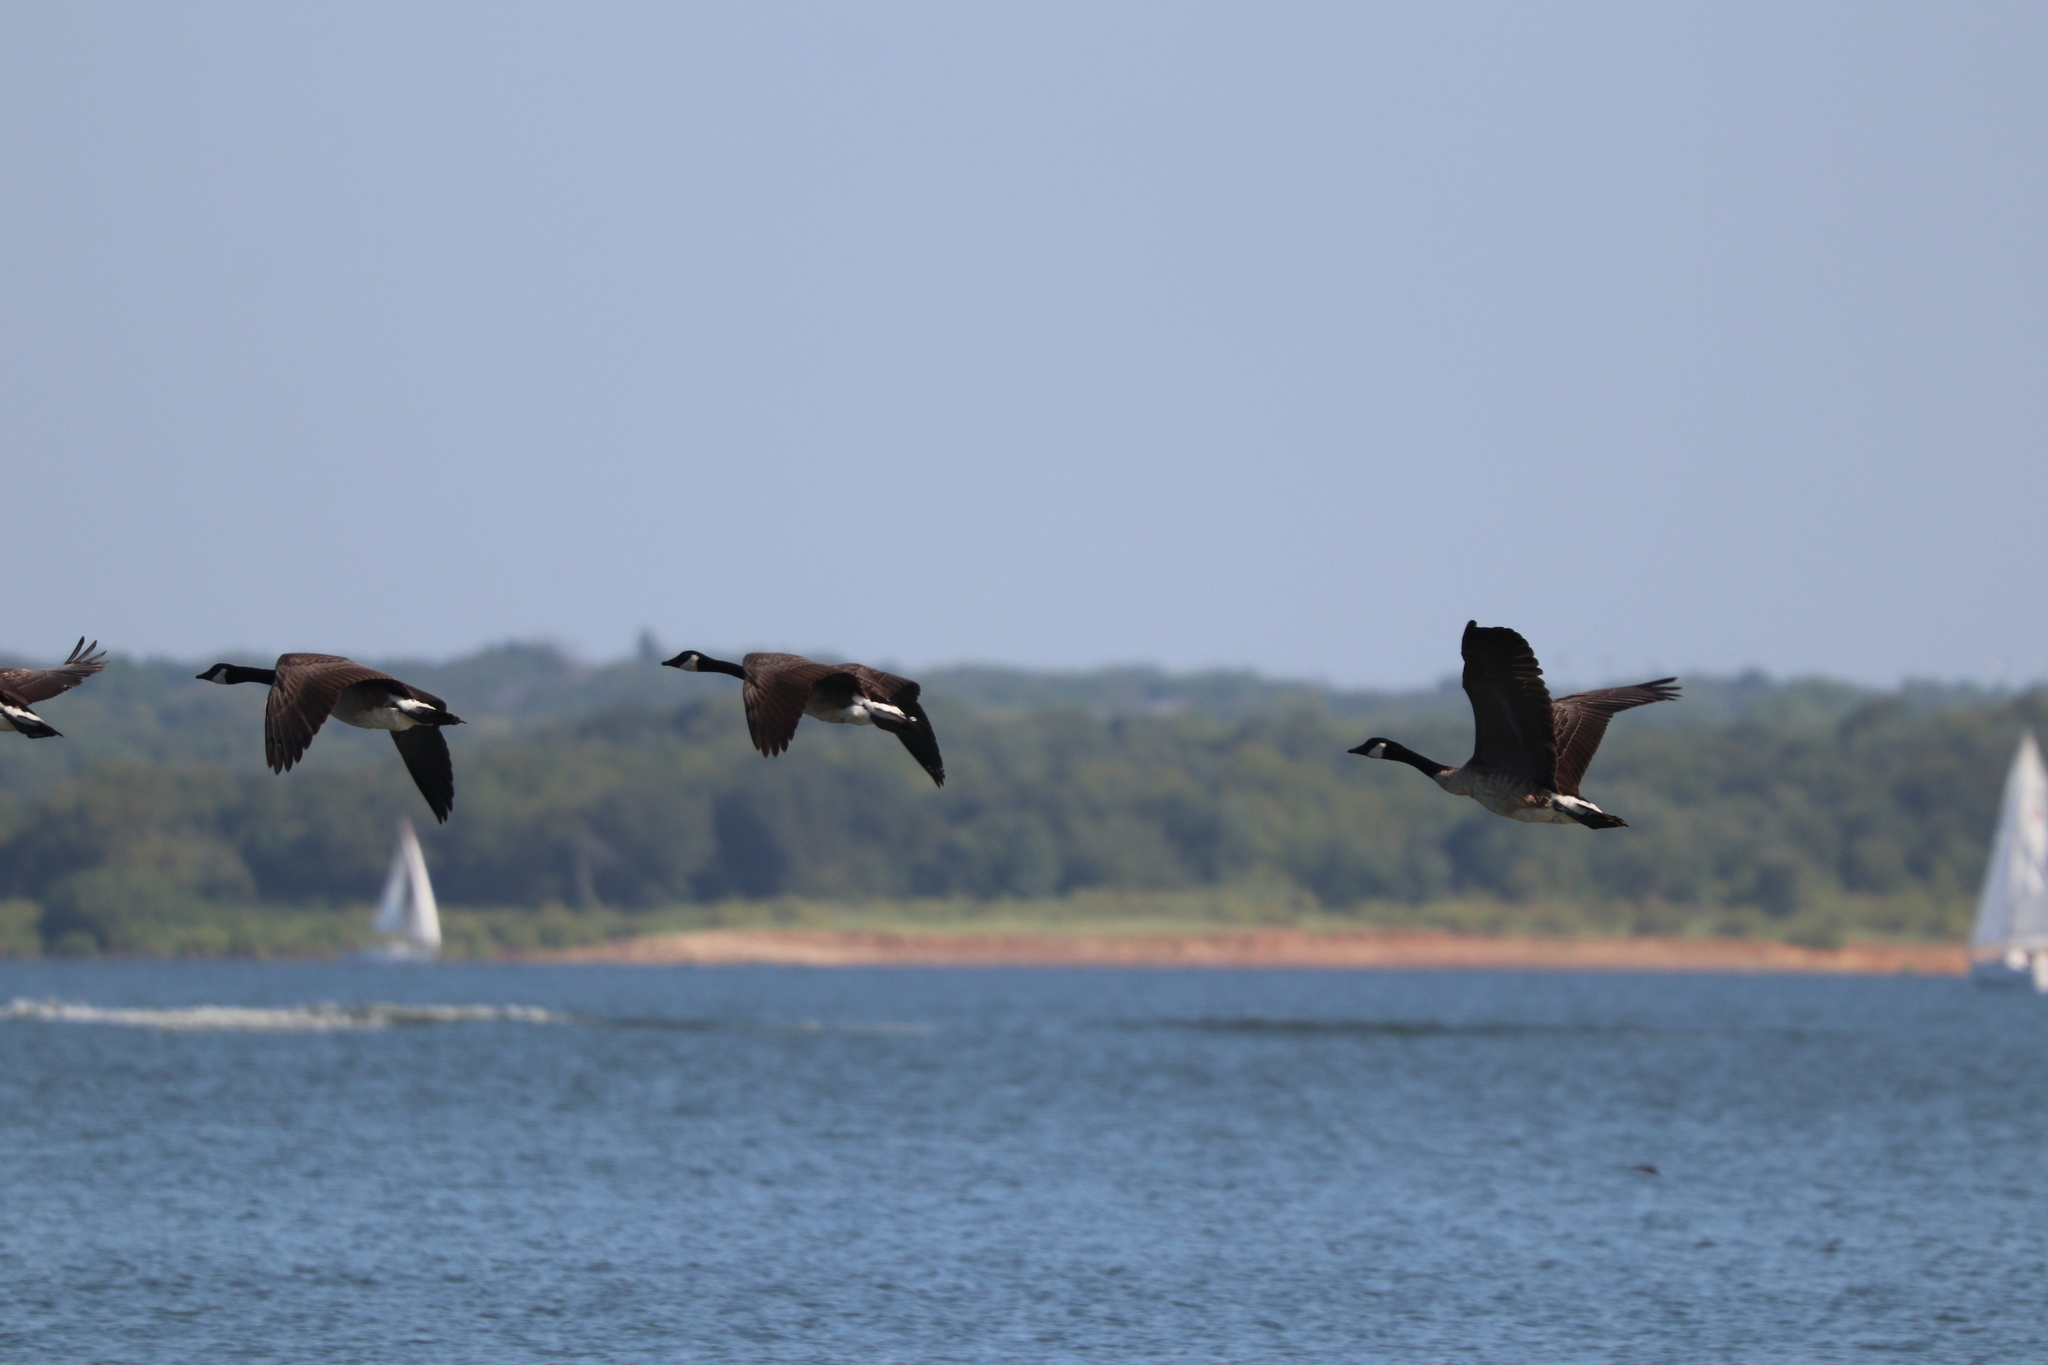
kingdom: Animalia
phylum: Chordata
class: Aves
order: Anseriformes
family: Anatidae
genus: Branta
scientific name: Branta canadensis
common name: Canada goose
